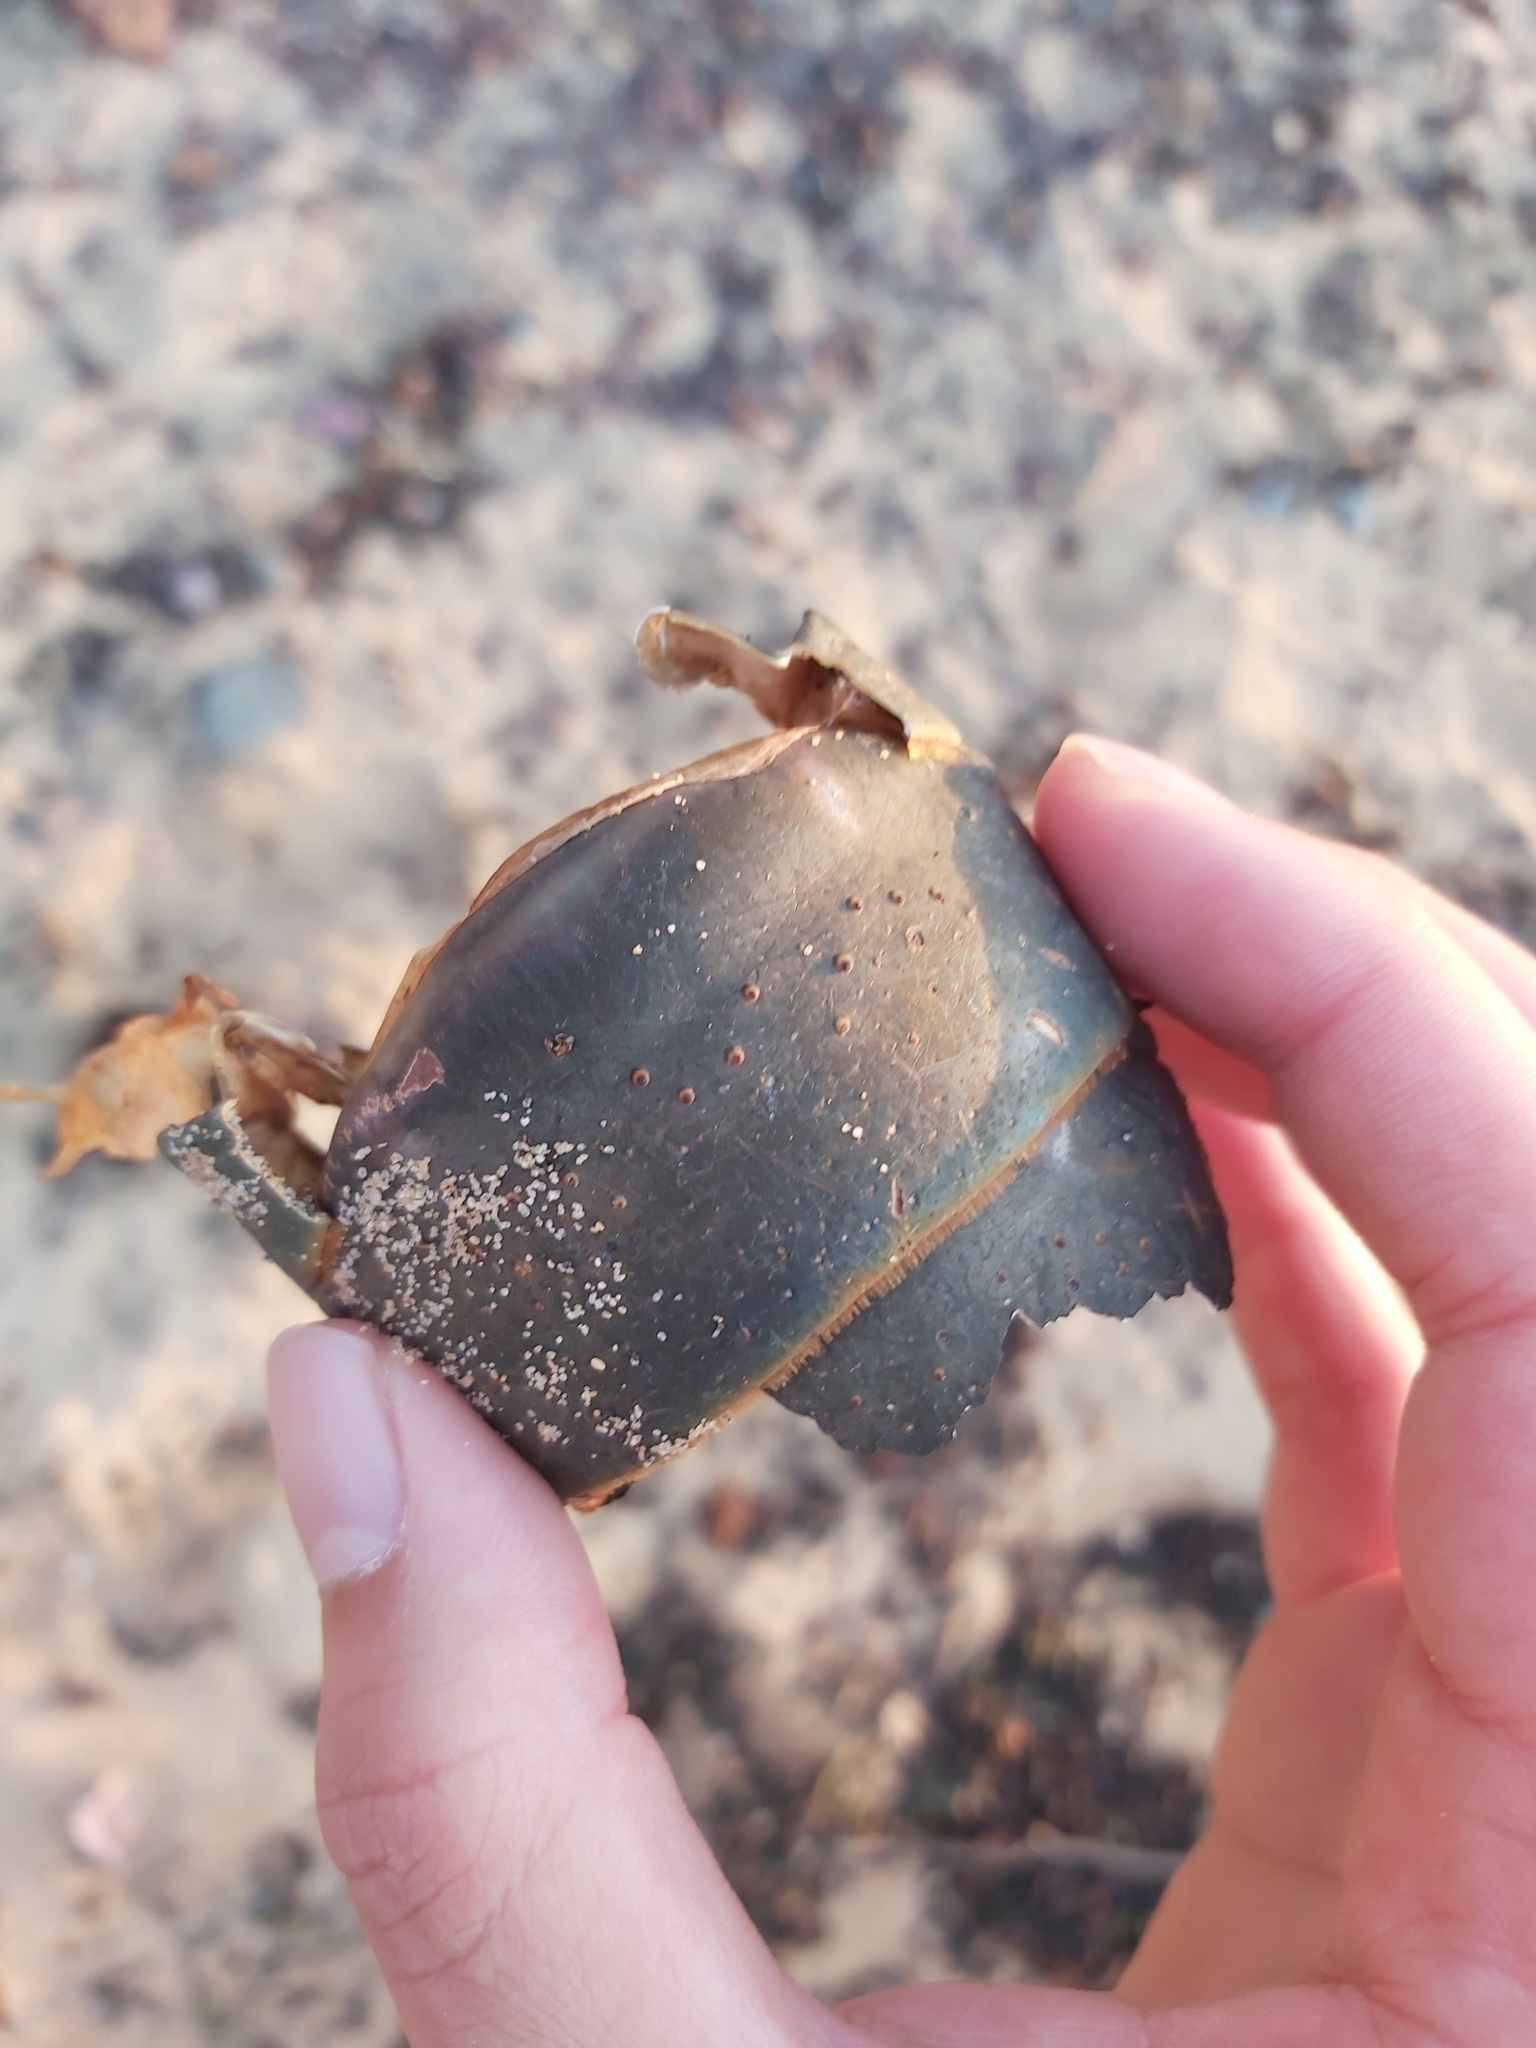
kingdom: Animalia
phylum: Arthropoda
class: Malacostraca
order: Decapoda
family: Palinuridae
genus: Sagmariasus
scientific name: Sagmariasus verreauxi
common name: Green rock lobster
